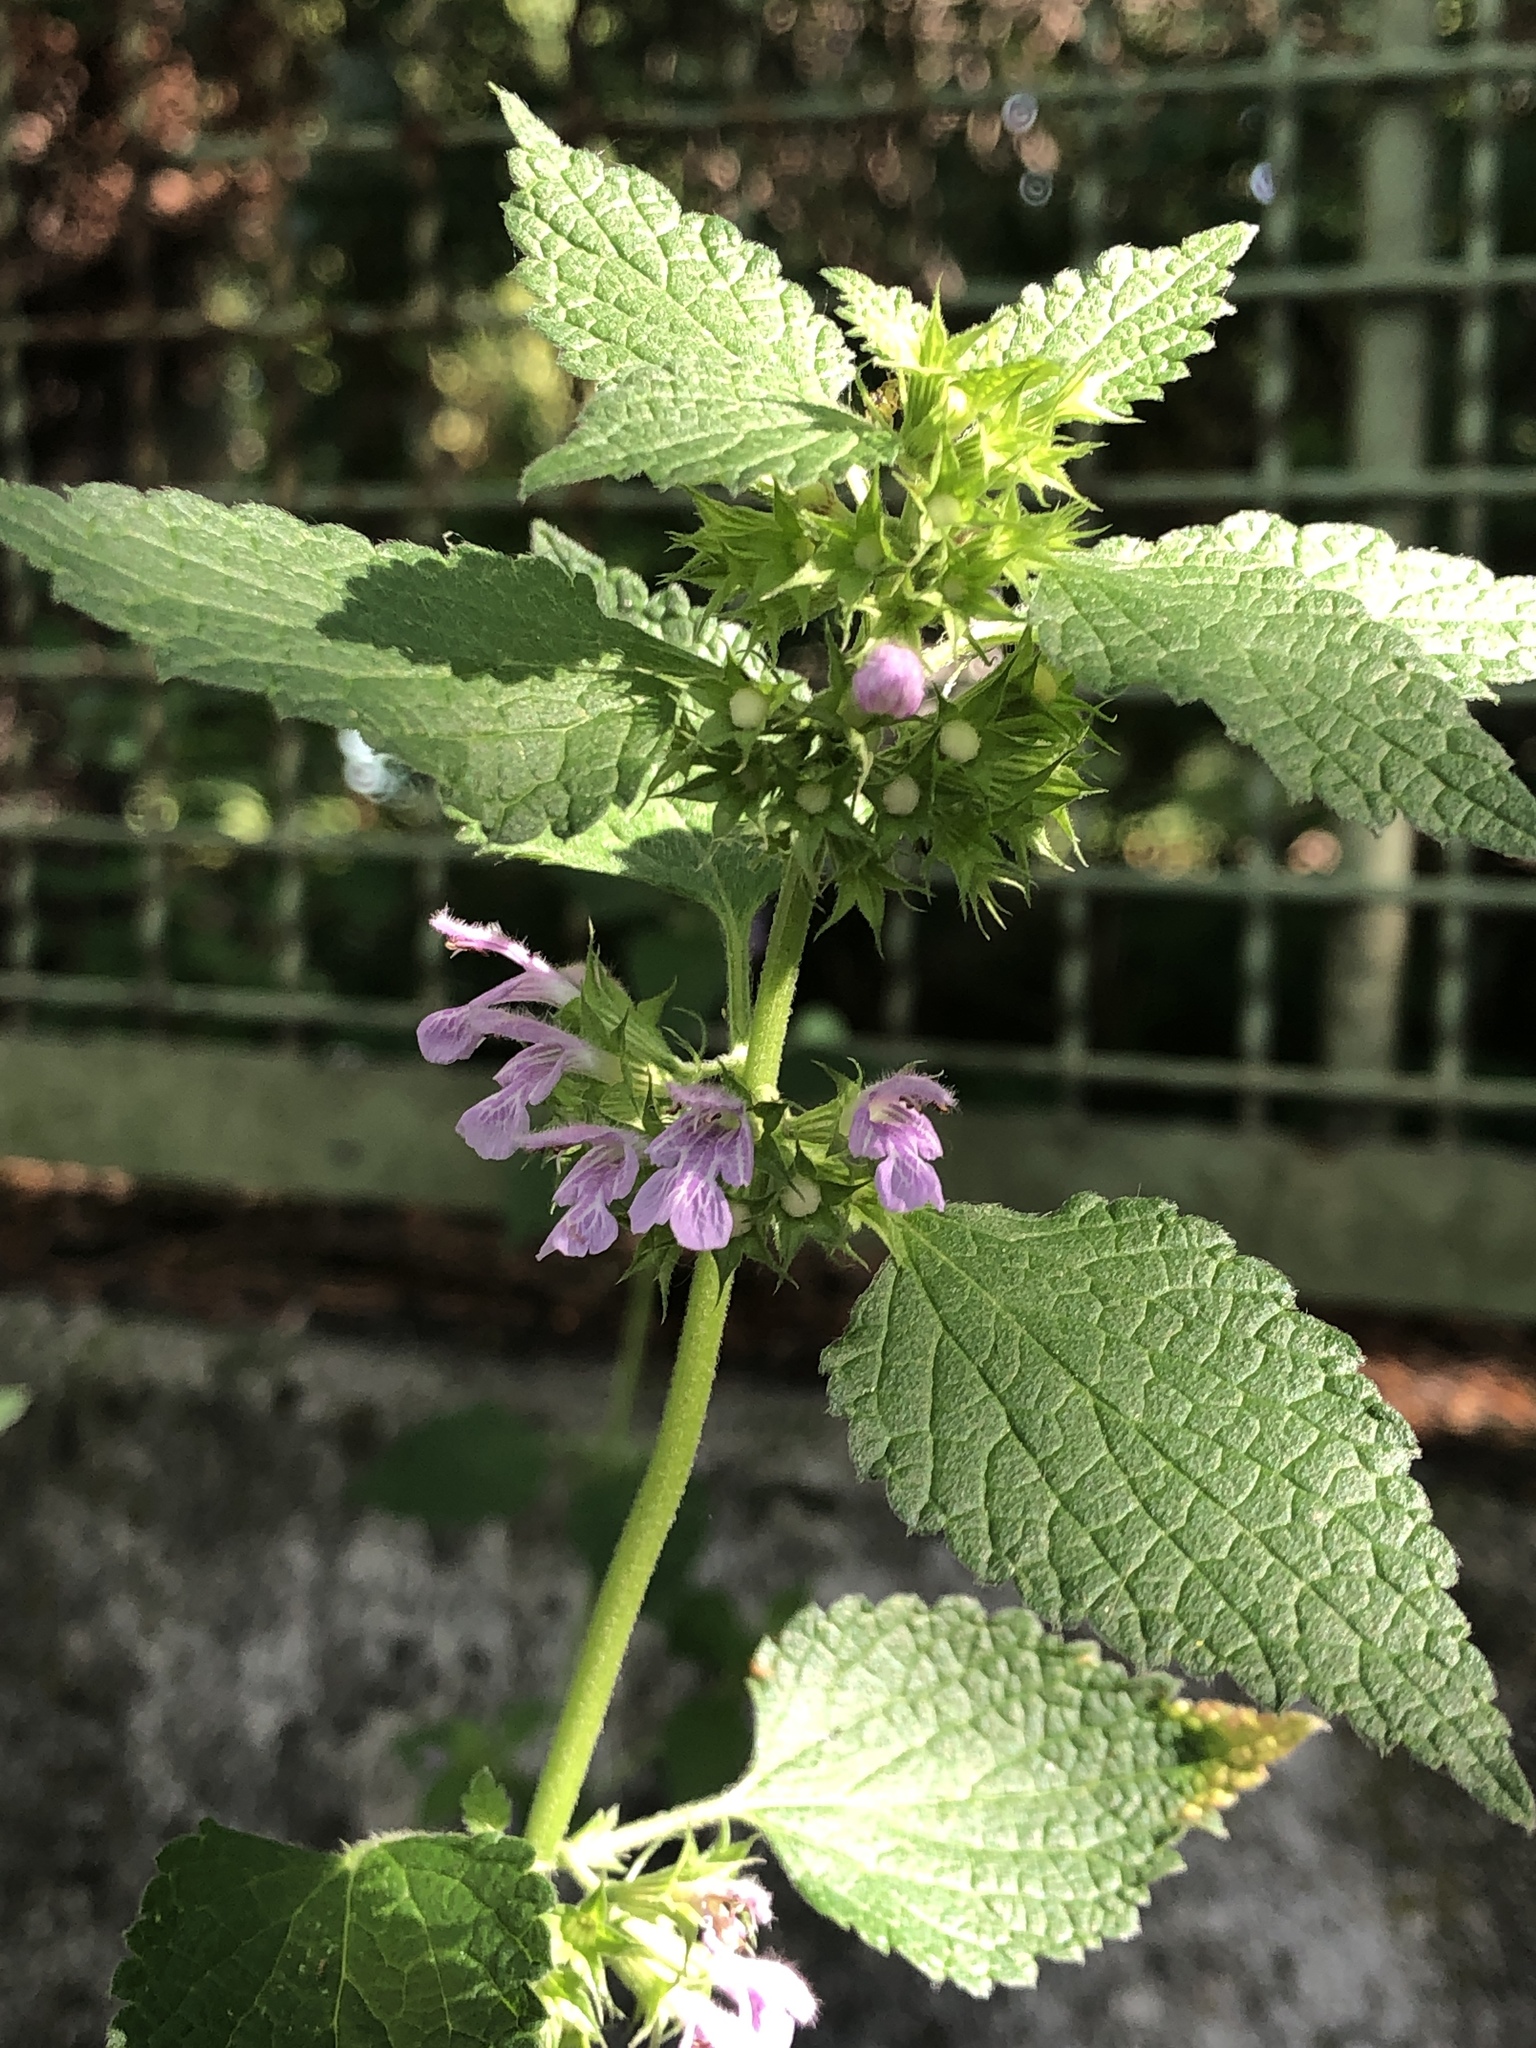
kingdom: Plantae
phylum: Tracheophyta
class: Magnoliopsida
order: Lamiales
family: Lamiaceae
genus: Ballota
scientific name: Ballota nigra
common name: Black horehound
